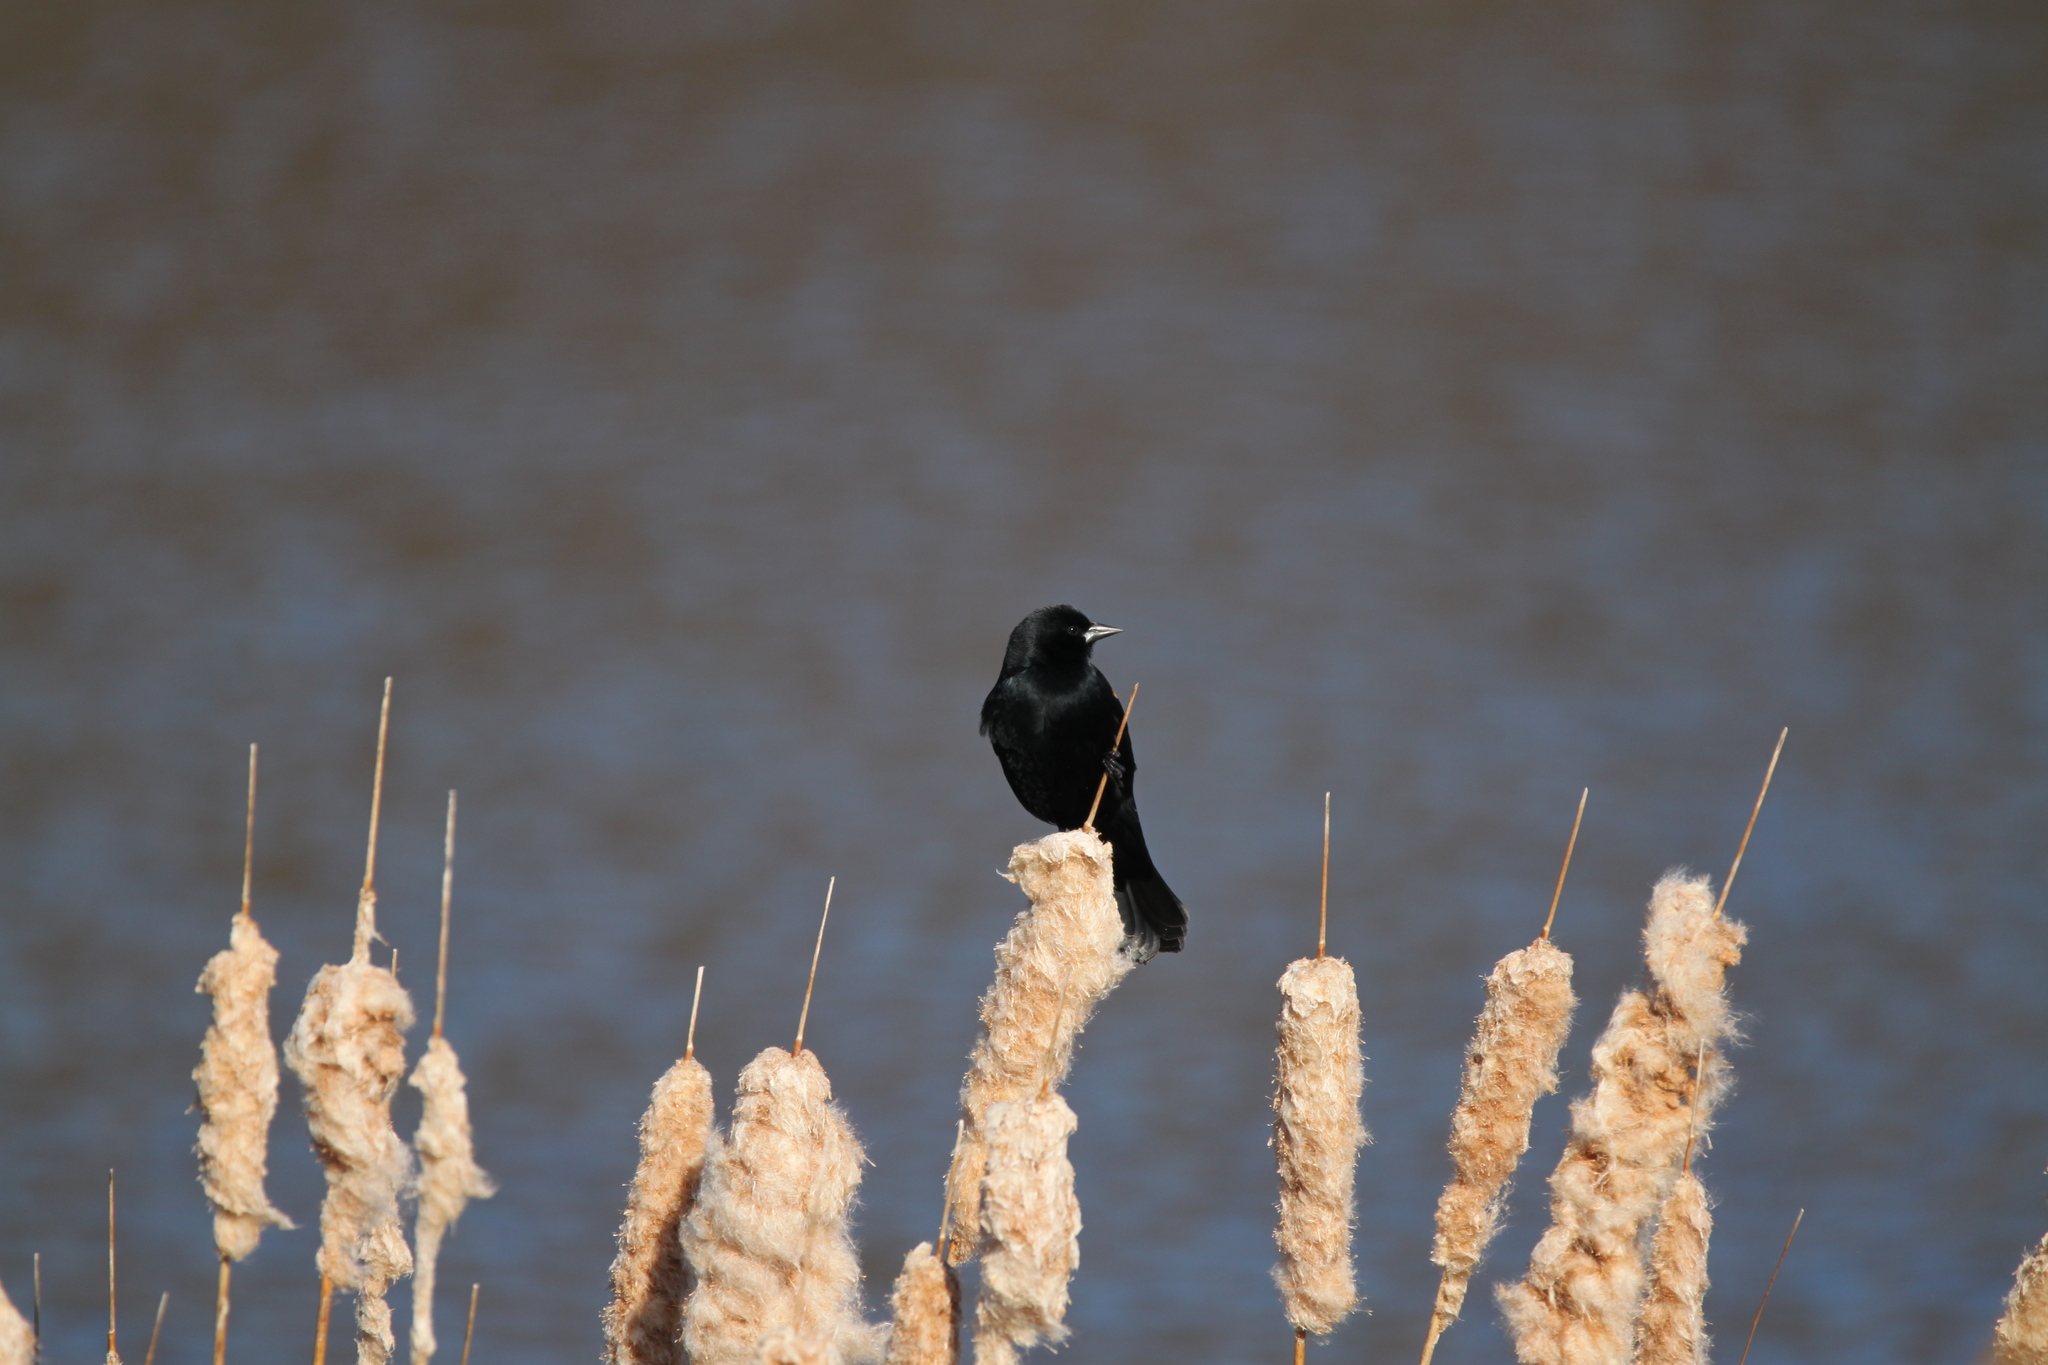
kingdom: Animalia
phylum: Chordata
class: Aves
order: Passeriformes
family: Icteridae
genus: Agelaius
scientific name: Agelaius phoeniceus
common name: Red-winged blackbird
